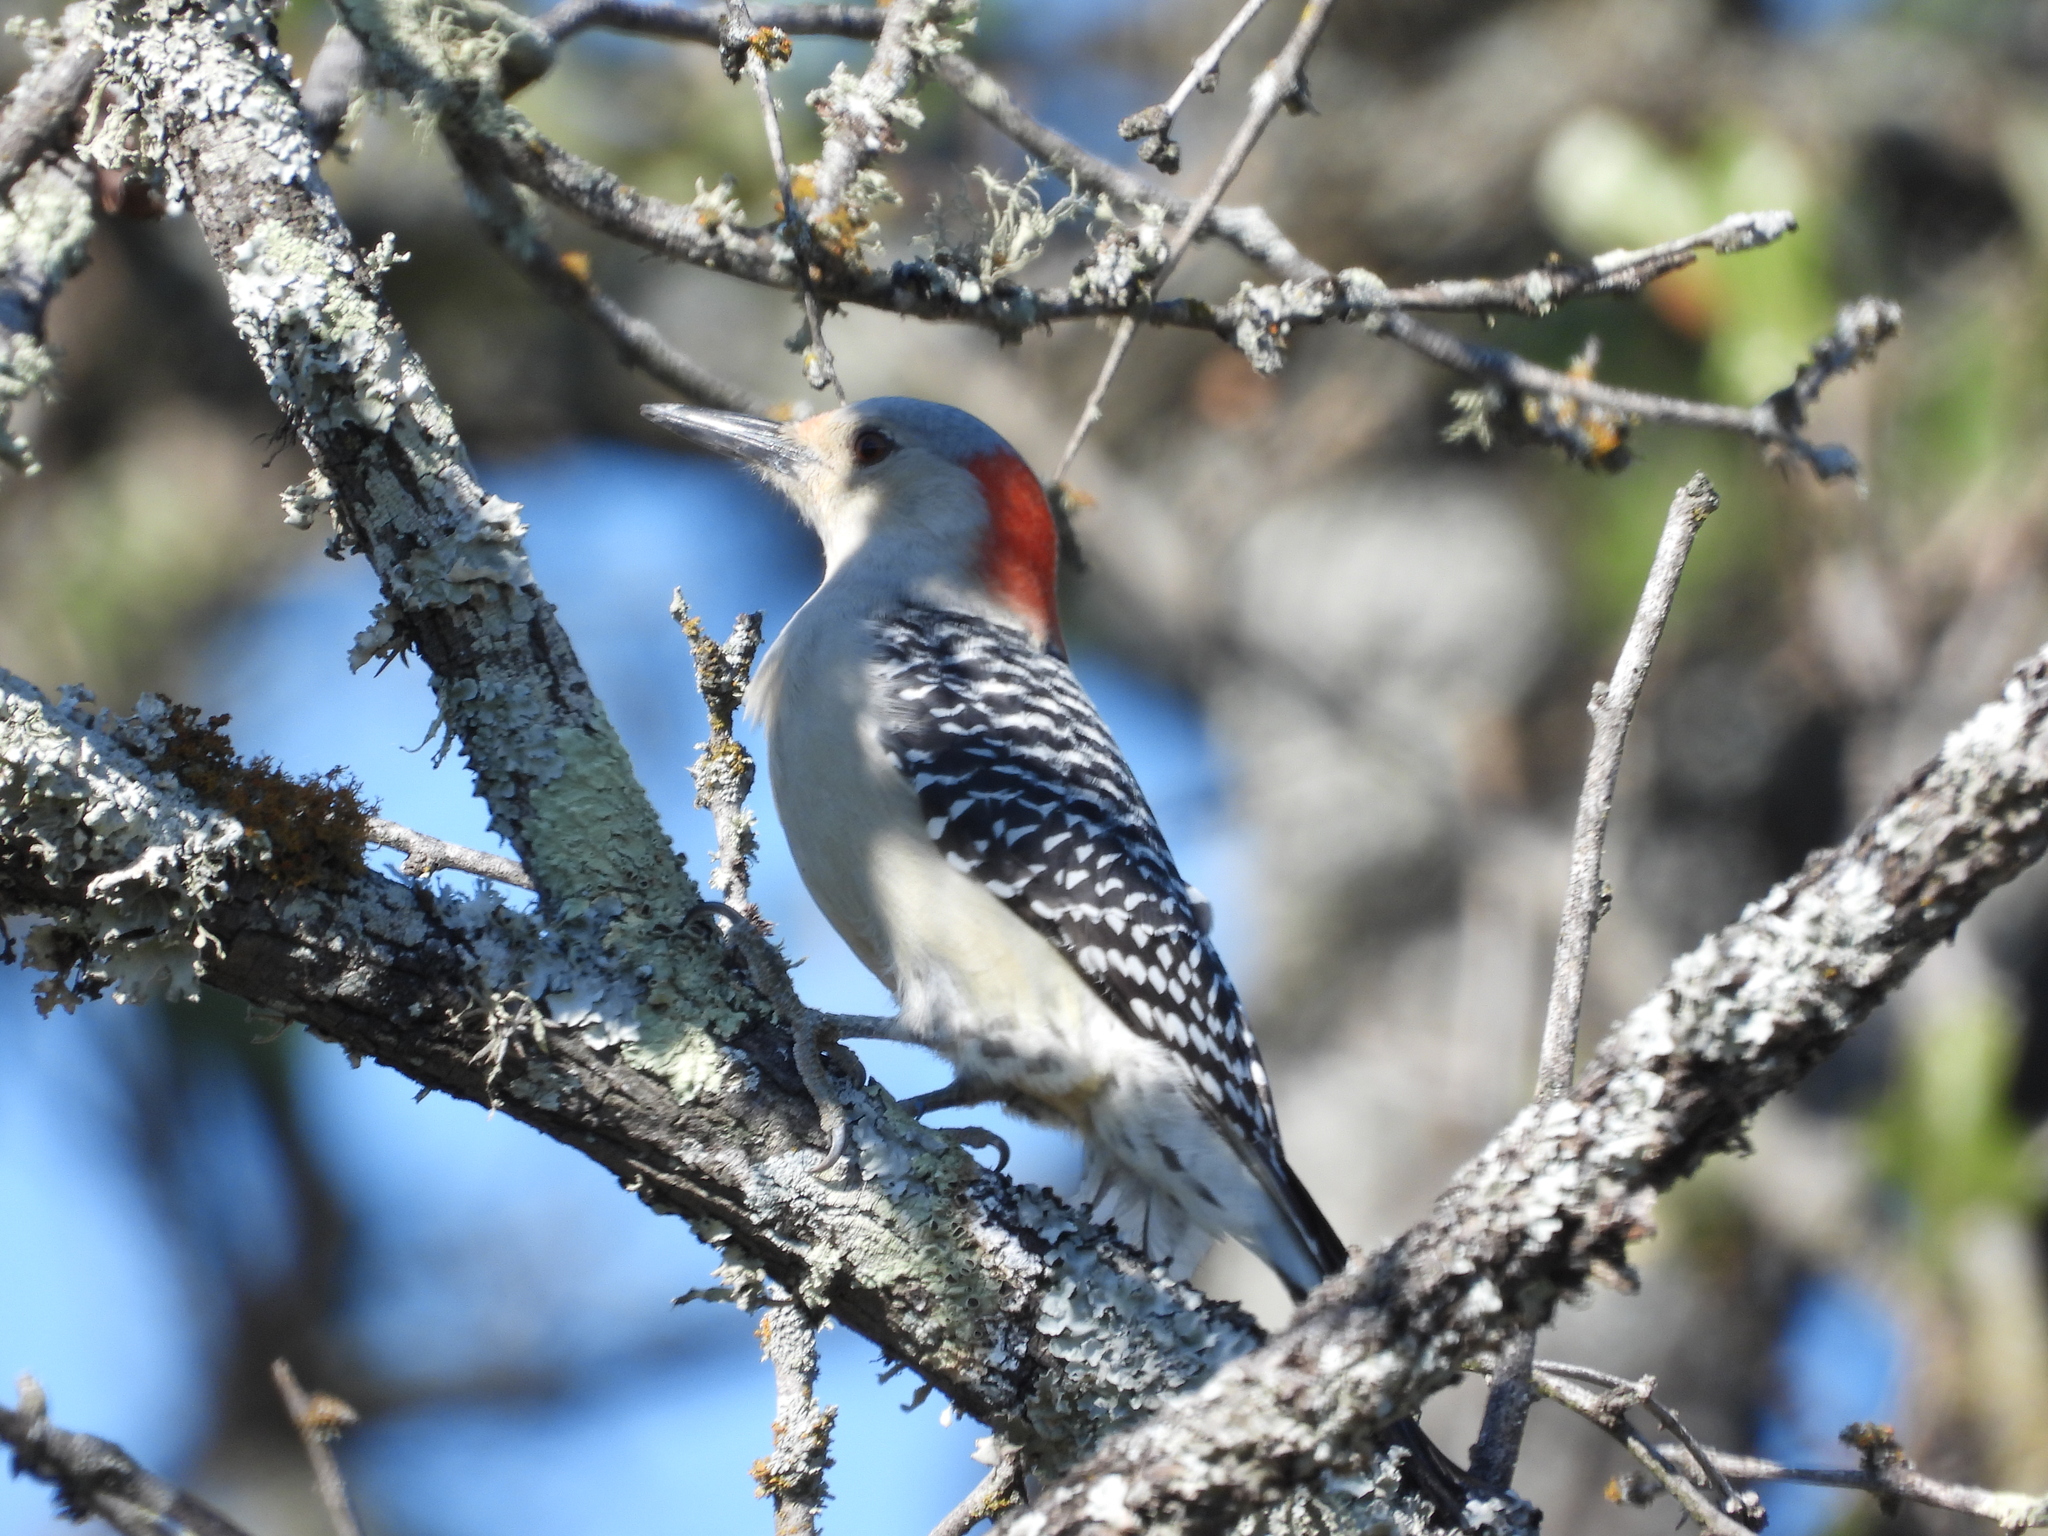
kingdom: Animalia
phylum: Chordata
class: Aves
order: Piciformes
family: Picidae
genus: Melanerpes
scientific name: Melanerpes carolinus
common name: Red-bellied woodpecker
